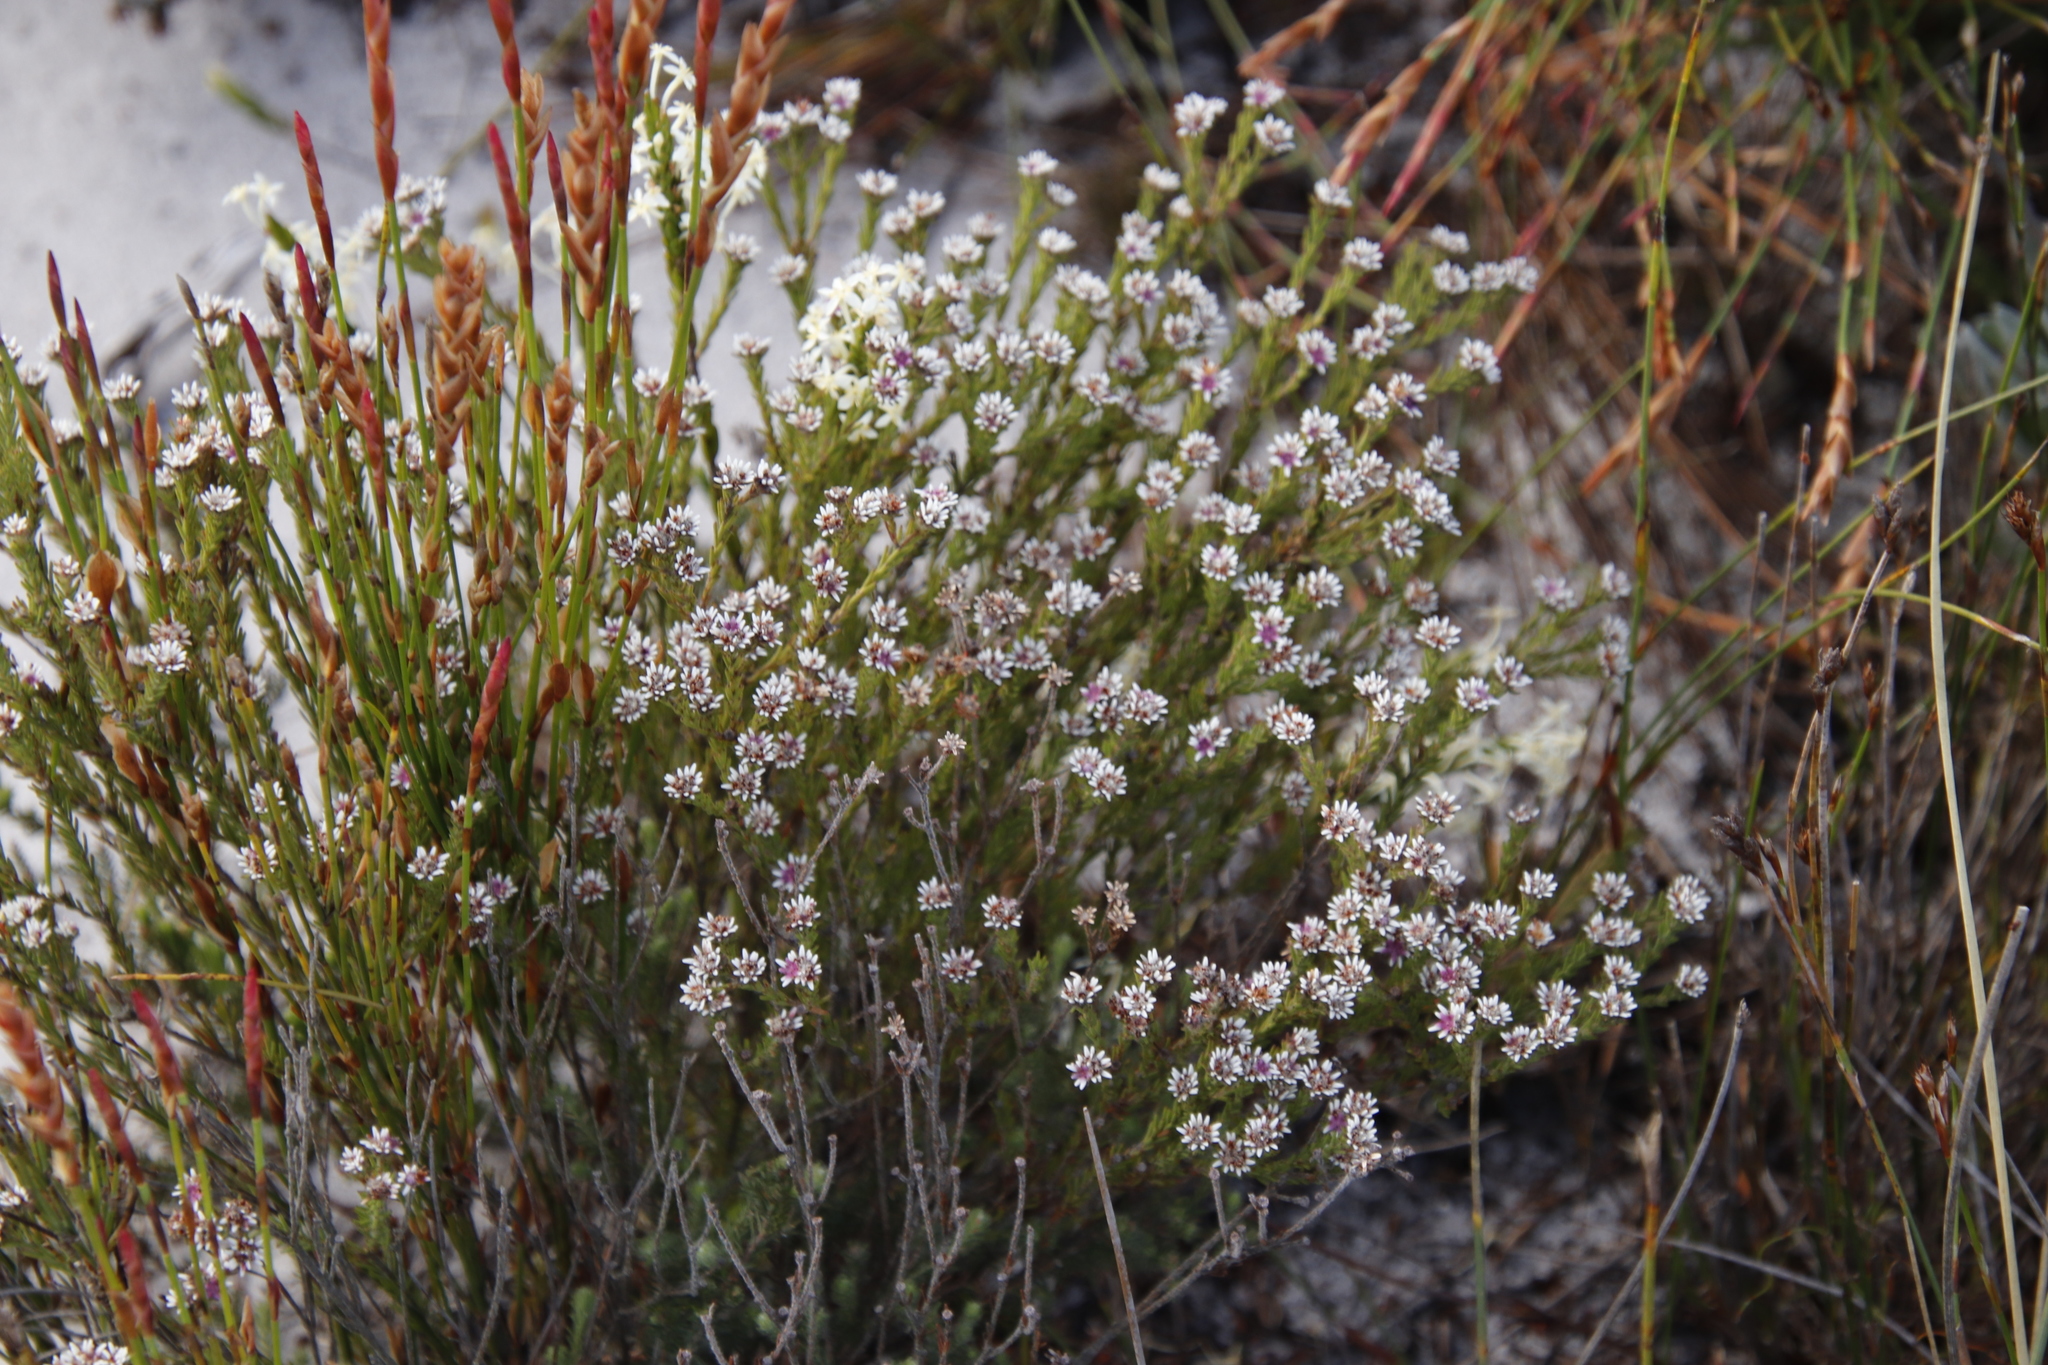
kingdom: Plantae
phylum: Tracheophyta
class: Magnoliopsida
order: Bruniales
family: Bruniaceae
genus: Staavia
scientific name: Staavia radiata
